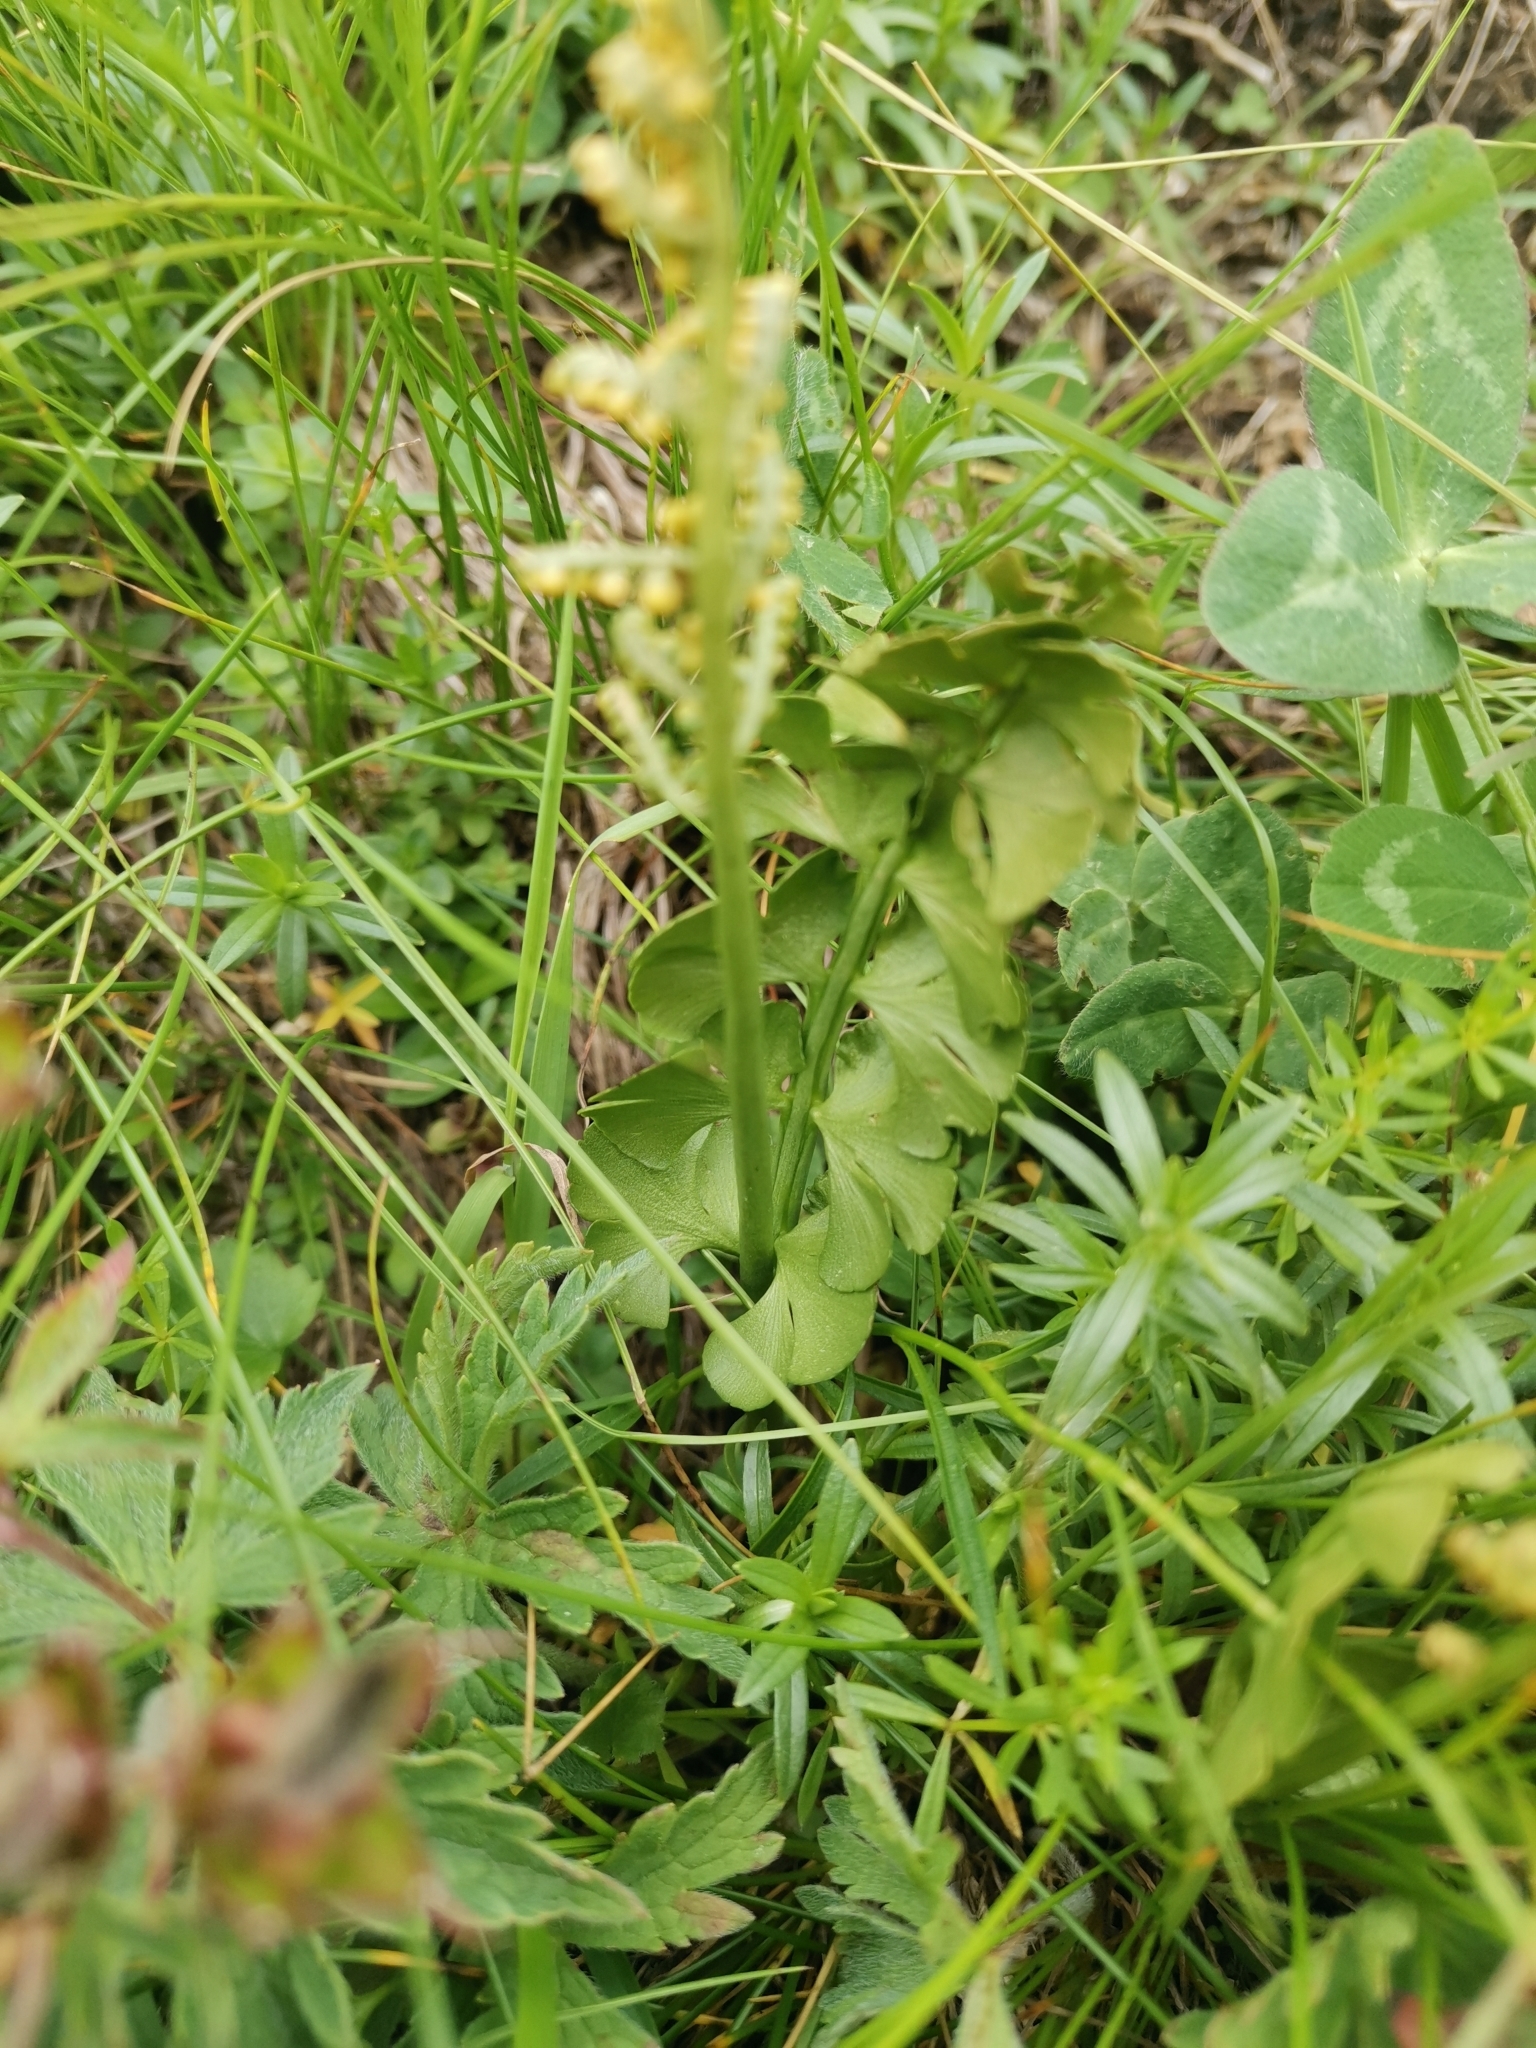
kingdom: Plantae
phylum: Tracheophyta
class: Polypodiopsida
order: Ophioglossales
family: Ophioglossaceae
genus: Botrychium
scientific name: Botrychium lunaria
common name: Moonwort
